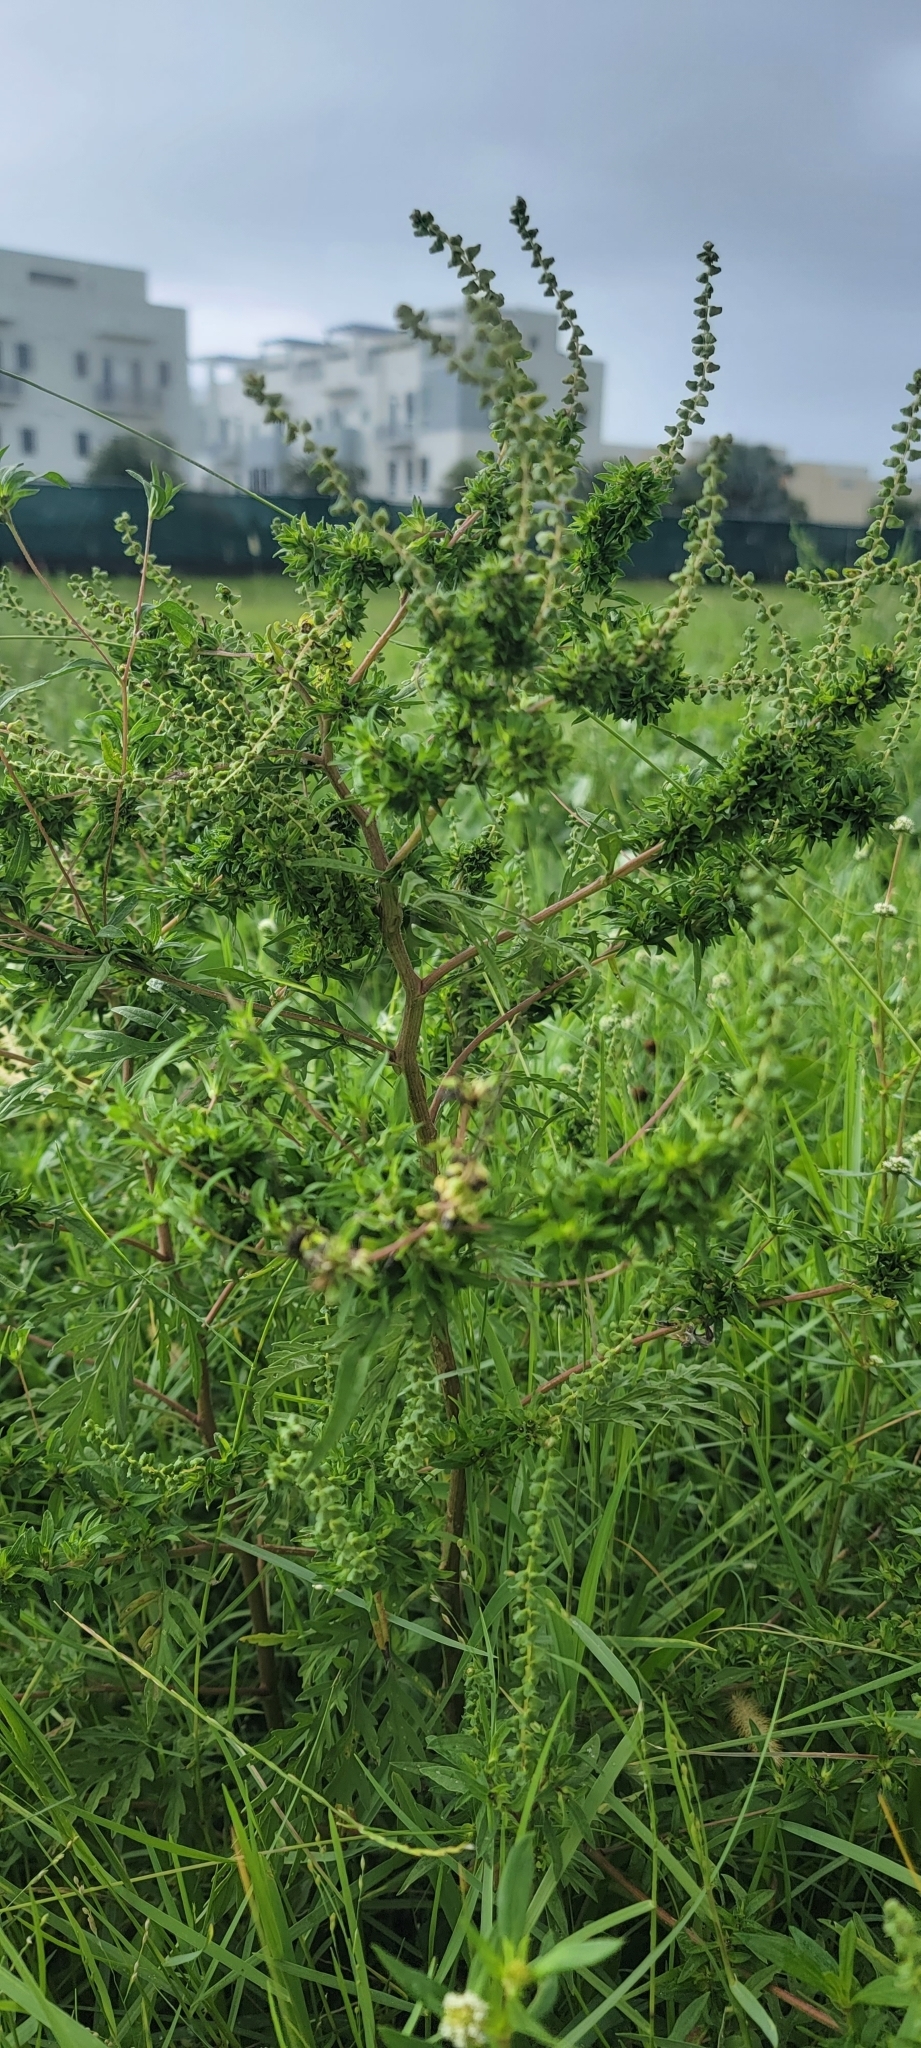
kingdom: Plantae
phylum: Tracheophyta
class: Magnoliopsida
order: Asterales
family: Asteraceae
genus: Ambrosia
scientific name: Ambrosia artemisiifolia
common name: Annual ragweed
